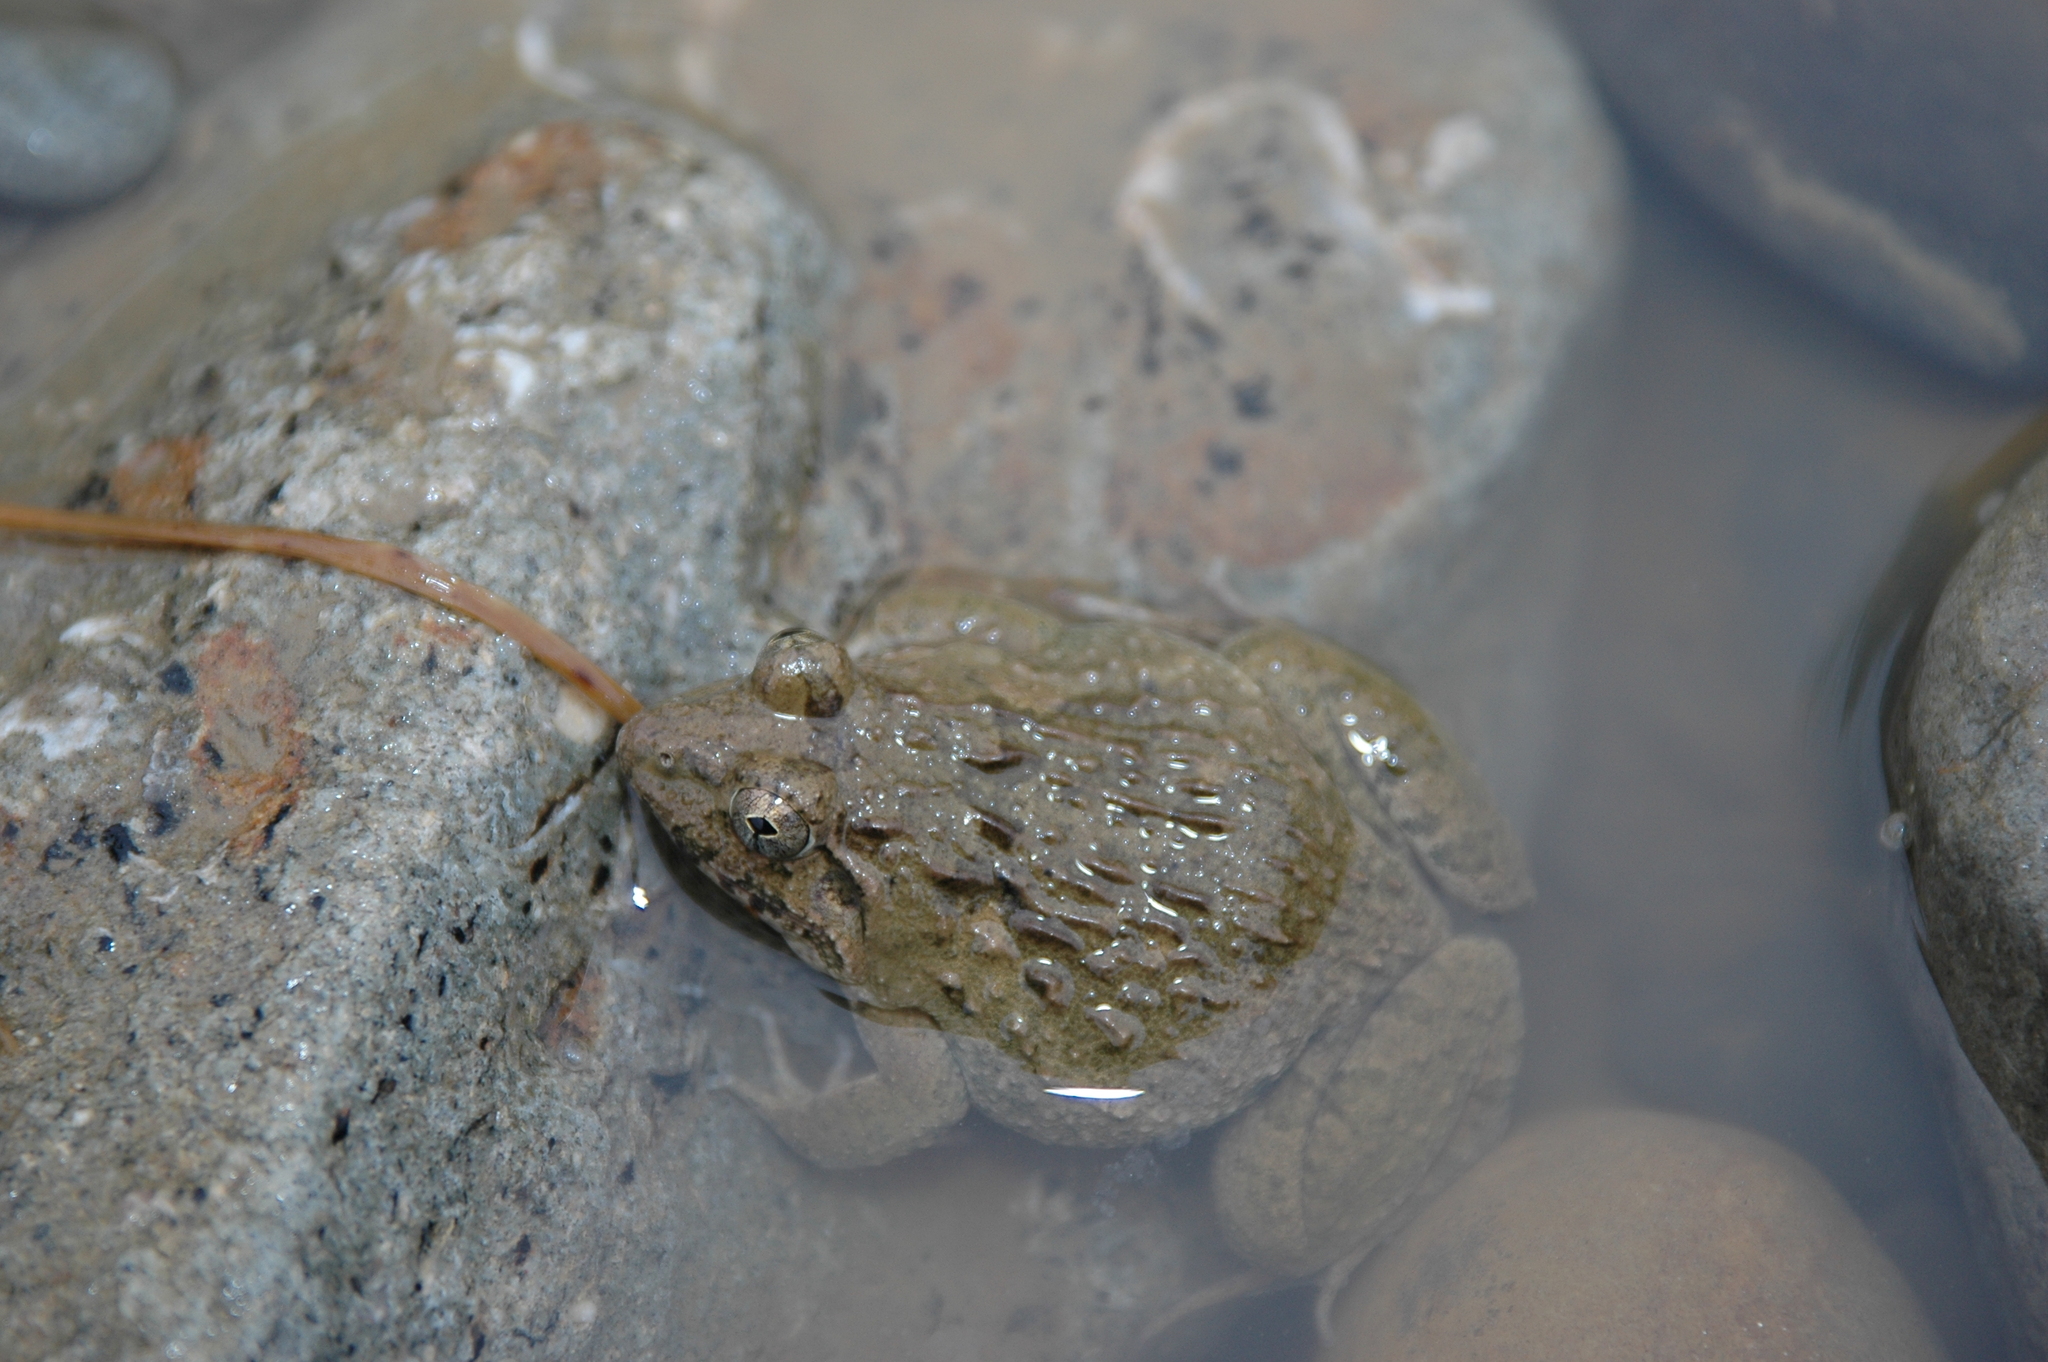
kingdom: Animalia
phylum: Chordata
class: Amphibia
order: Anura
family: Dicroglossidae
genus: Hoplobatrachus
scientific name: Hoplobatrachus rugulosus
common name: Chinese edible frog
